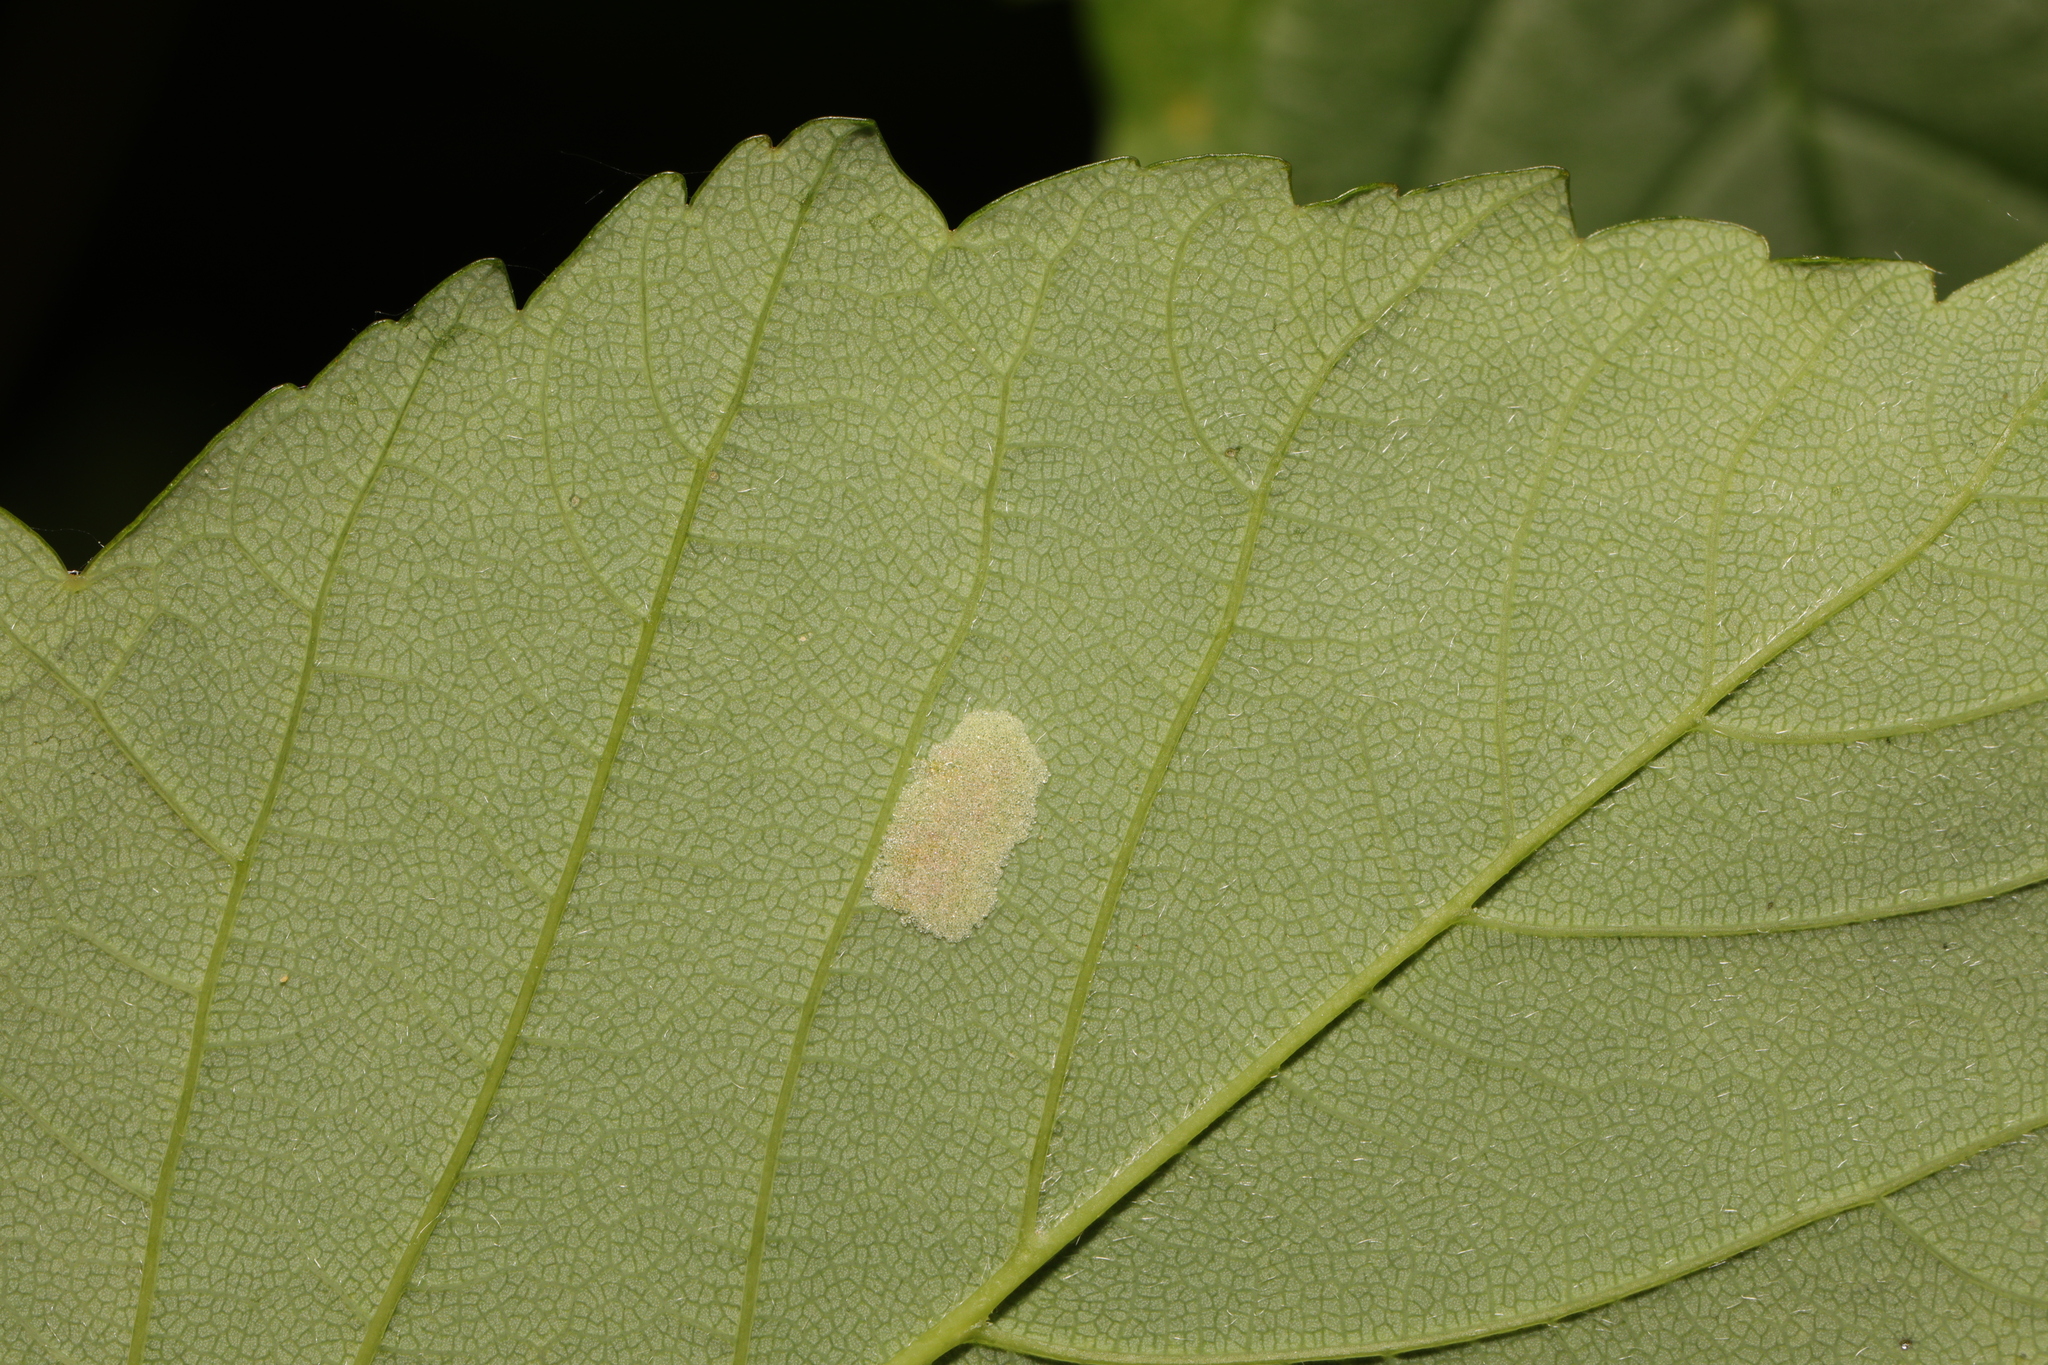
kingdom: Animalia
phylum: Arthropoda
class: Arachnida
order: Trombidiformes
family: Eriophyidae
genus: Aceria
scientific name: Aceria pseudoplatani
